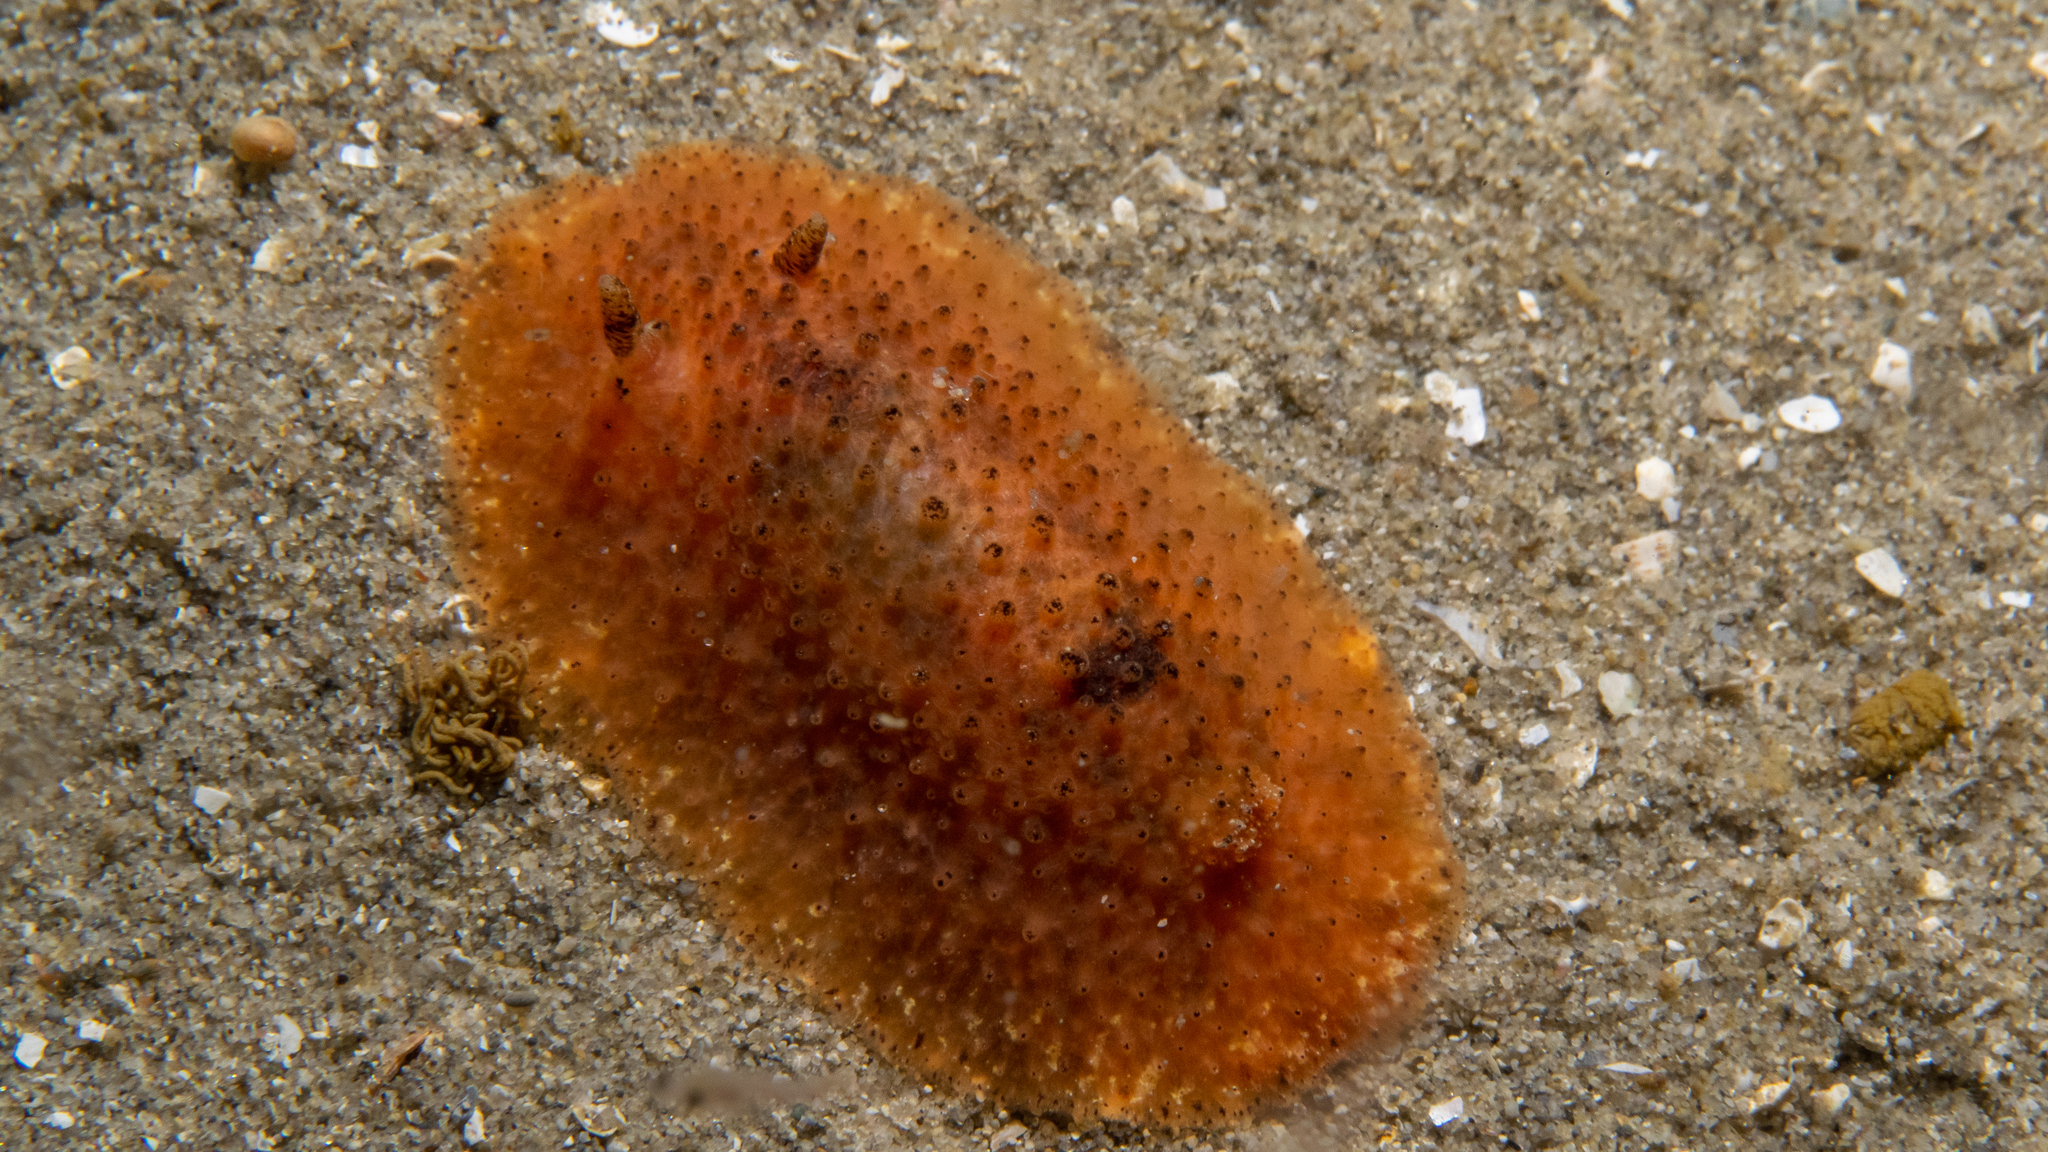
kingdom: Animalia
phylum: Mollusca
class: Gastropoda
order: Nudibranchia
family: Dorididae
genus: Doris
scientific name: Doris cameroni
